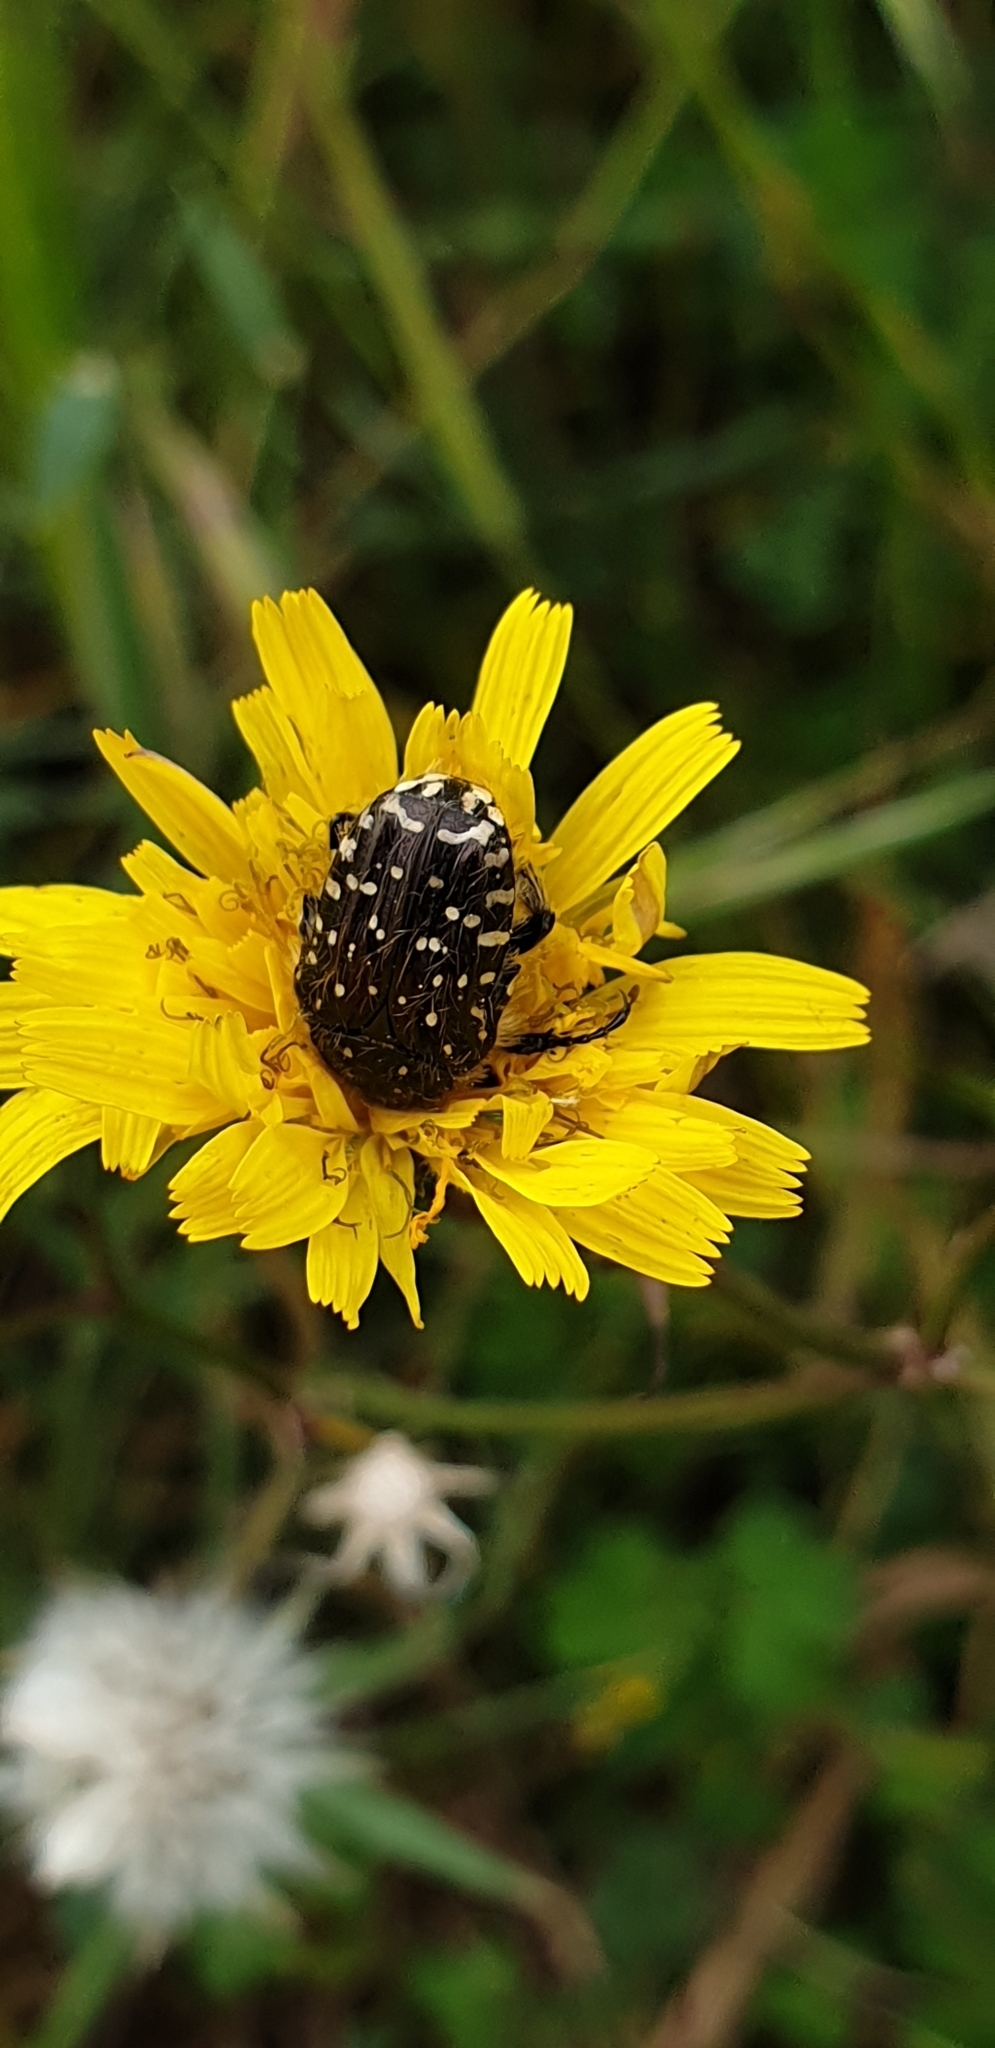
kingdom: Animalia
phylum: Arthropoda
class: Insecta
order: Coleoptera
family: Scarabaeidae
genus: Oxythyrea
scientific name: Oxythyrea funesta
